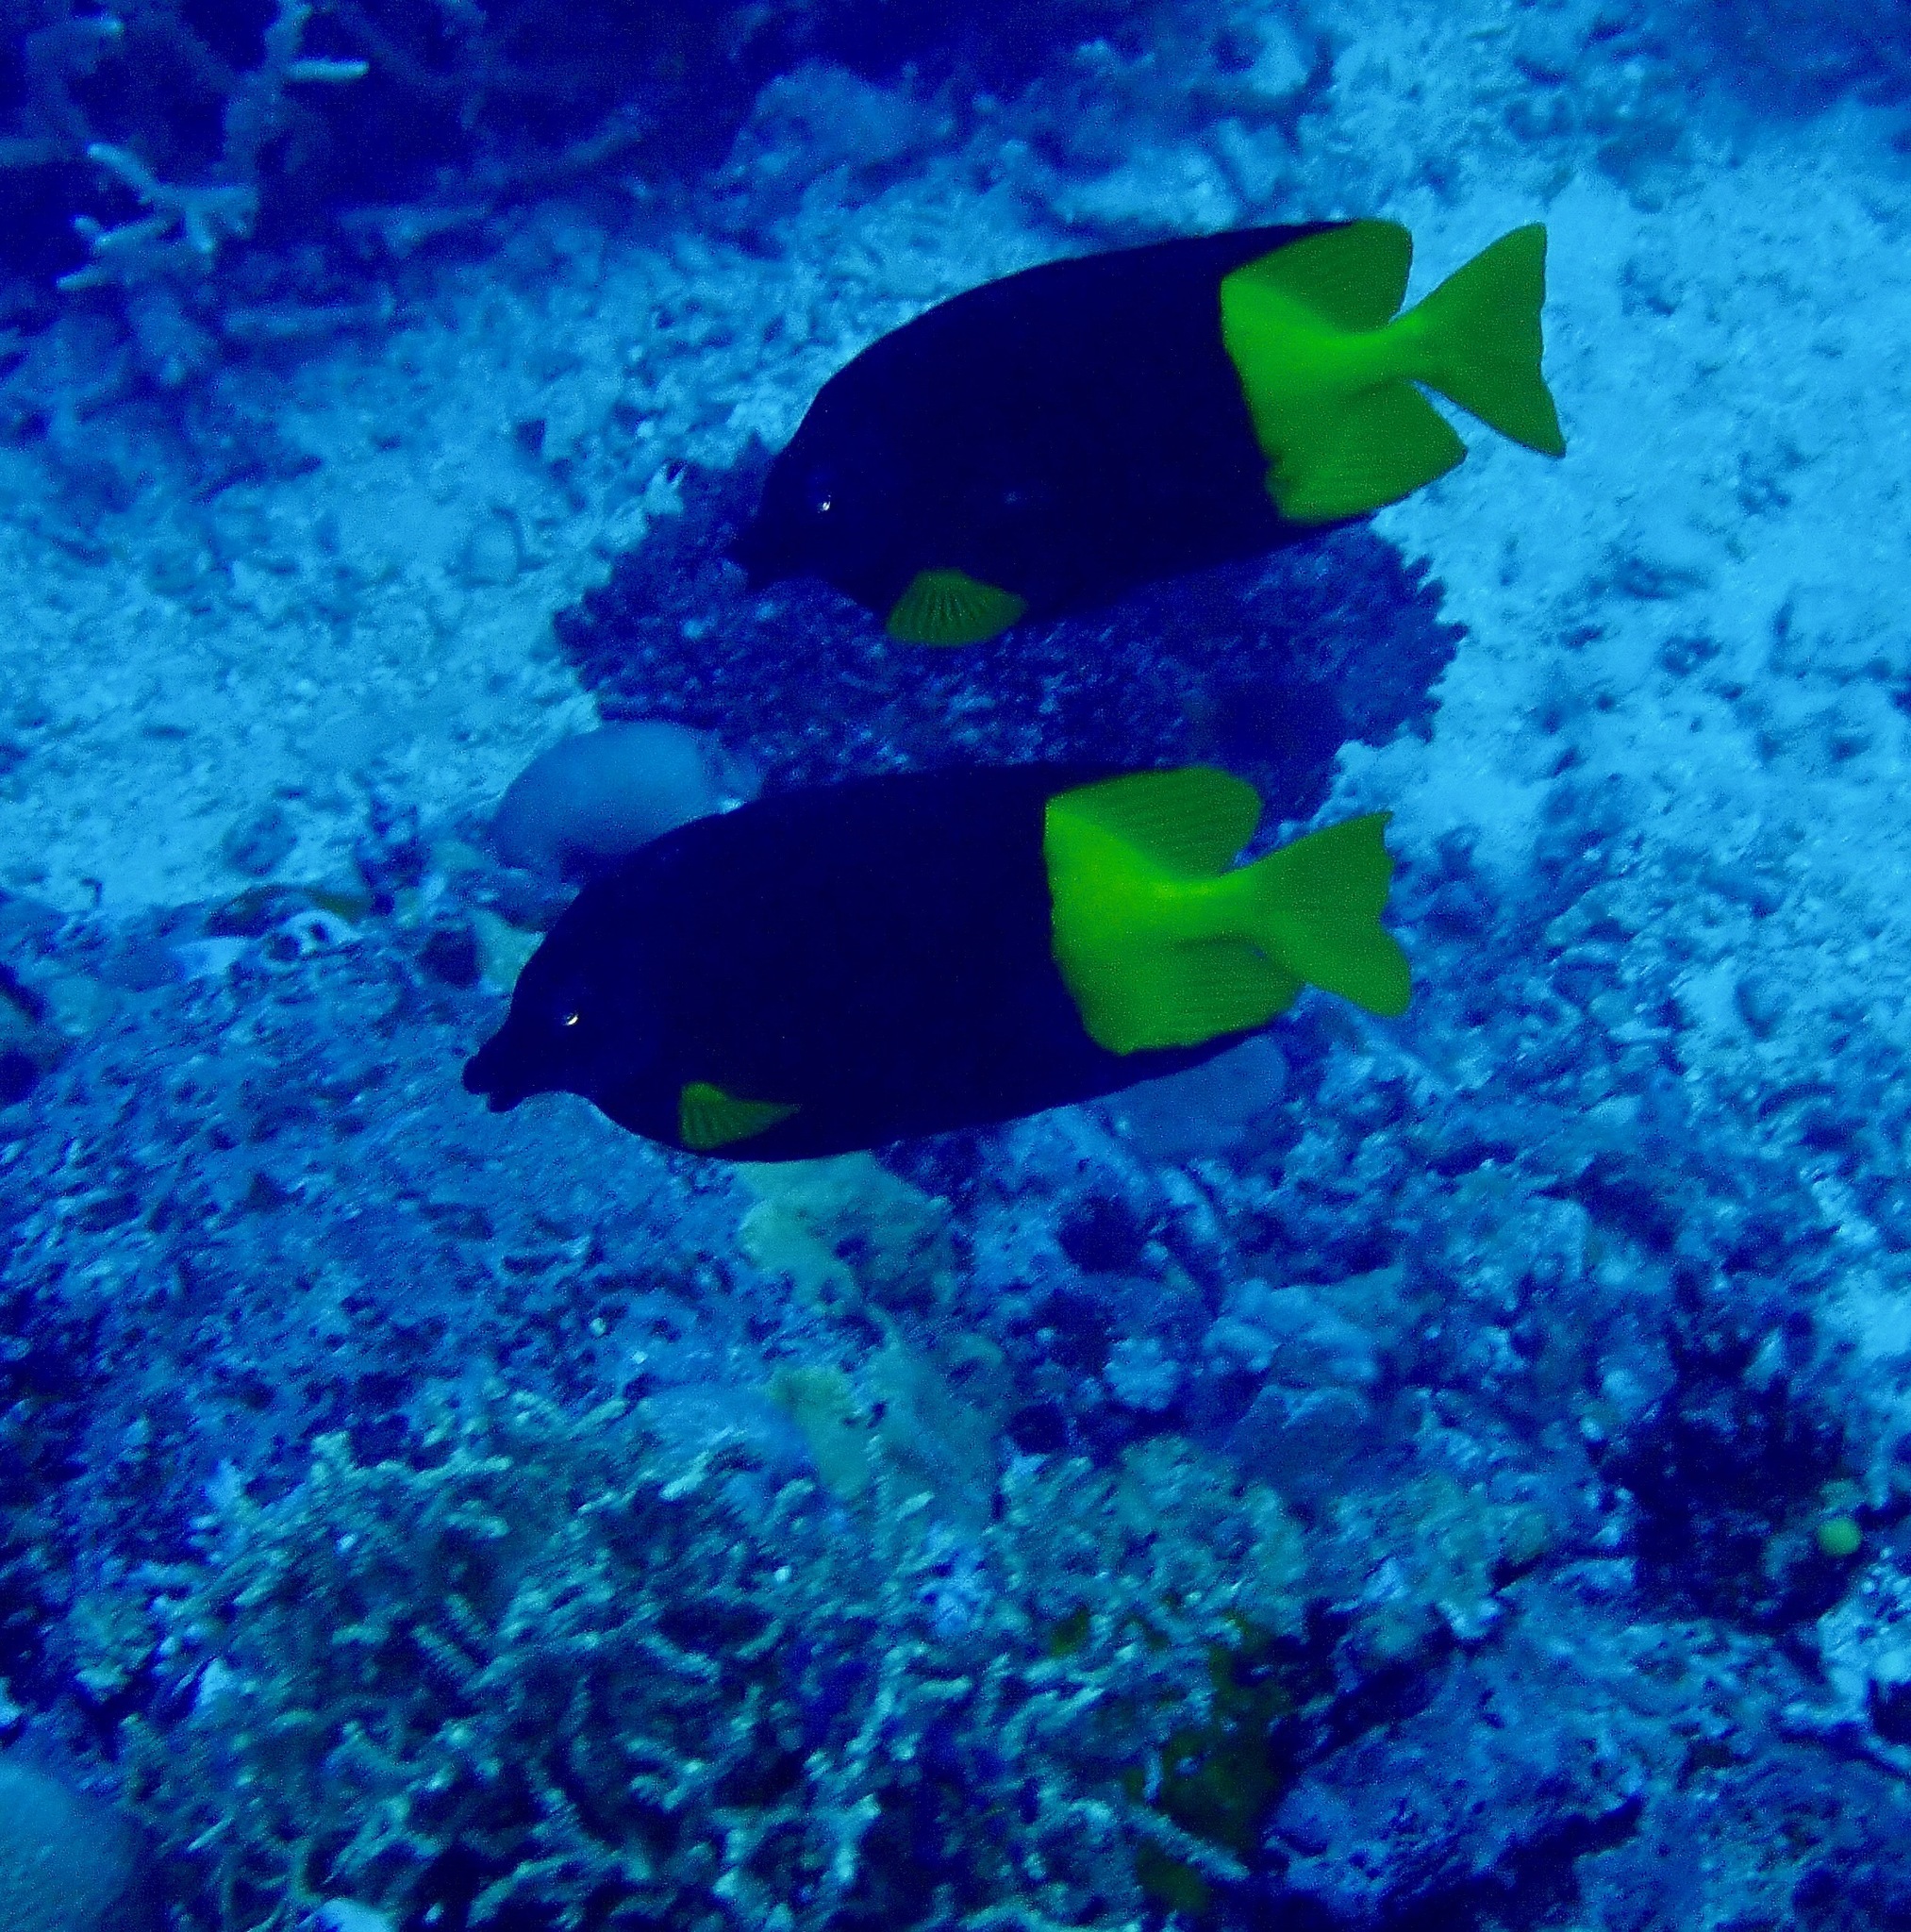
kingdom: Animalia
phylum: Chordata
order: Perciformes
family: Siganidae
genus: Siganus
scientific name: Siganus uspi
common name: Bicolored foxface
